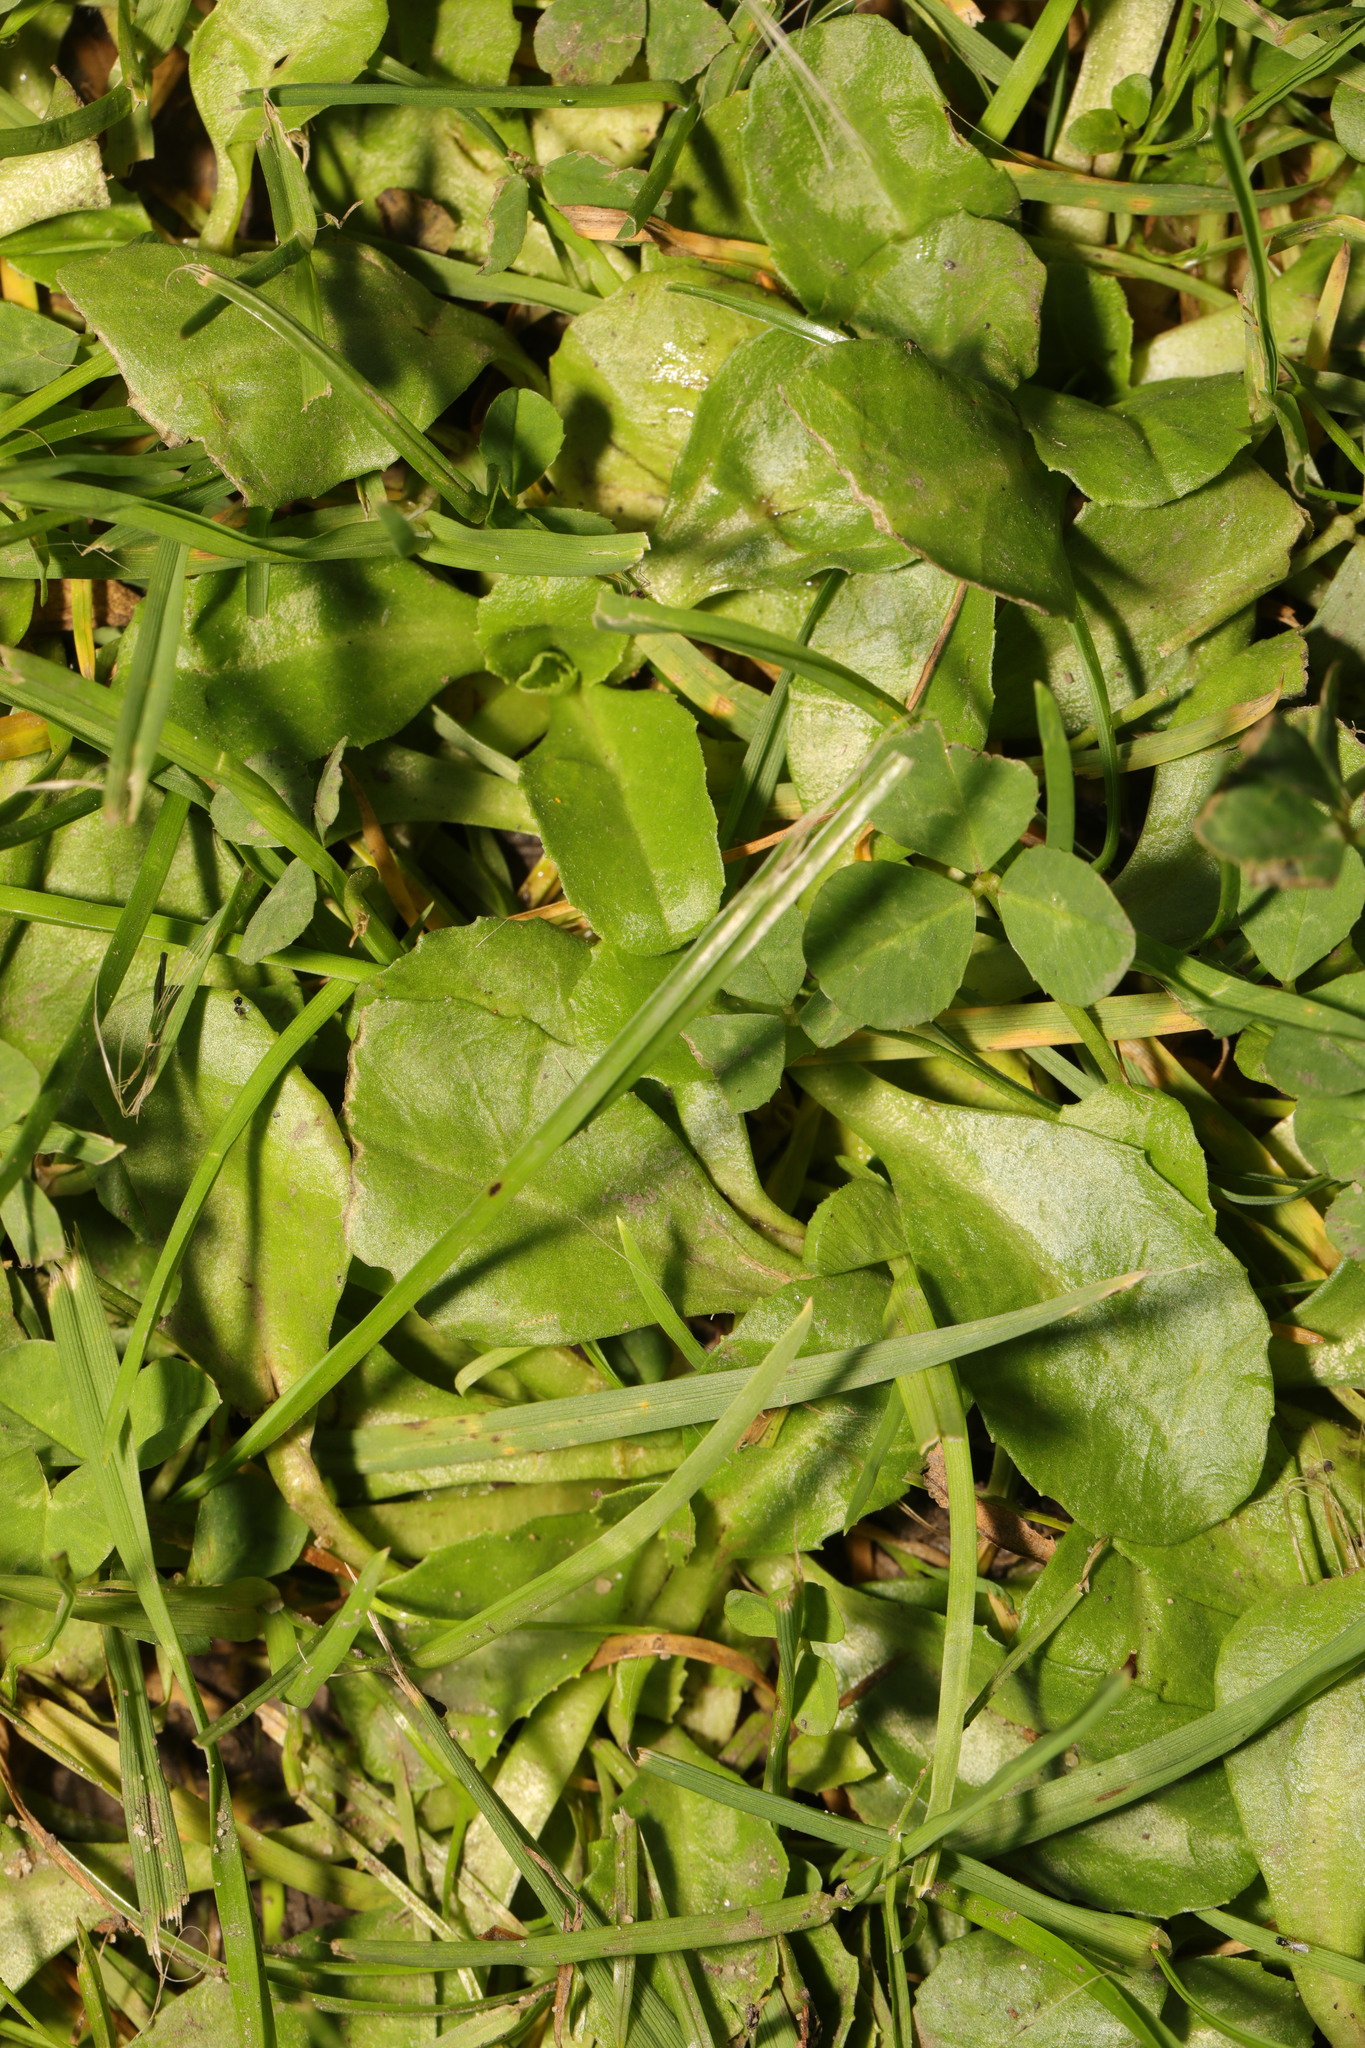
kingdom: Plantae
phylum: Tracheophyta
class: Magnoliopsida
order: Asterales
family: Asteraceae
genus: Bellis
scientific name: Bellis perennis
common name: Lawndaisy
